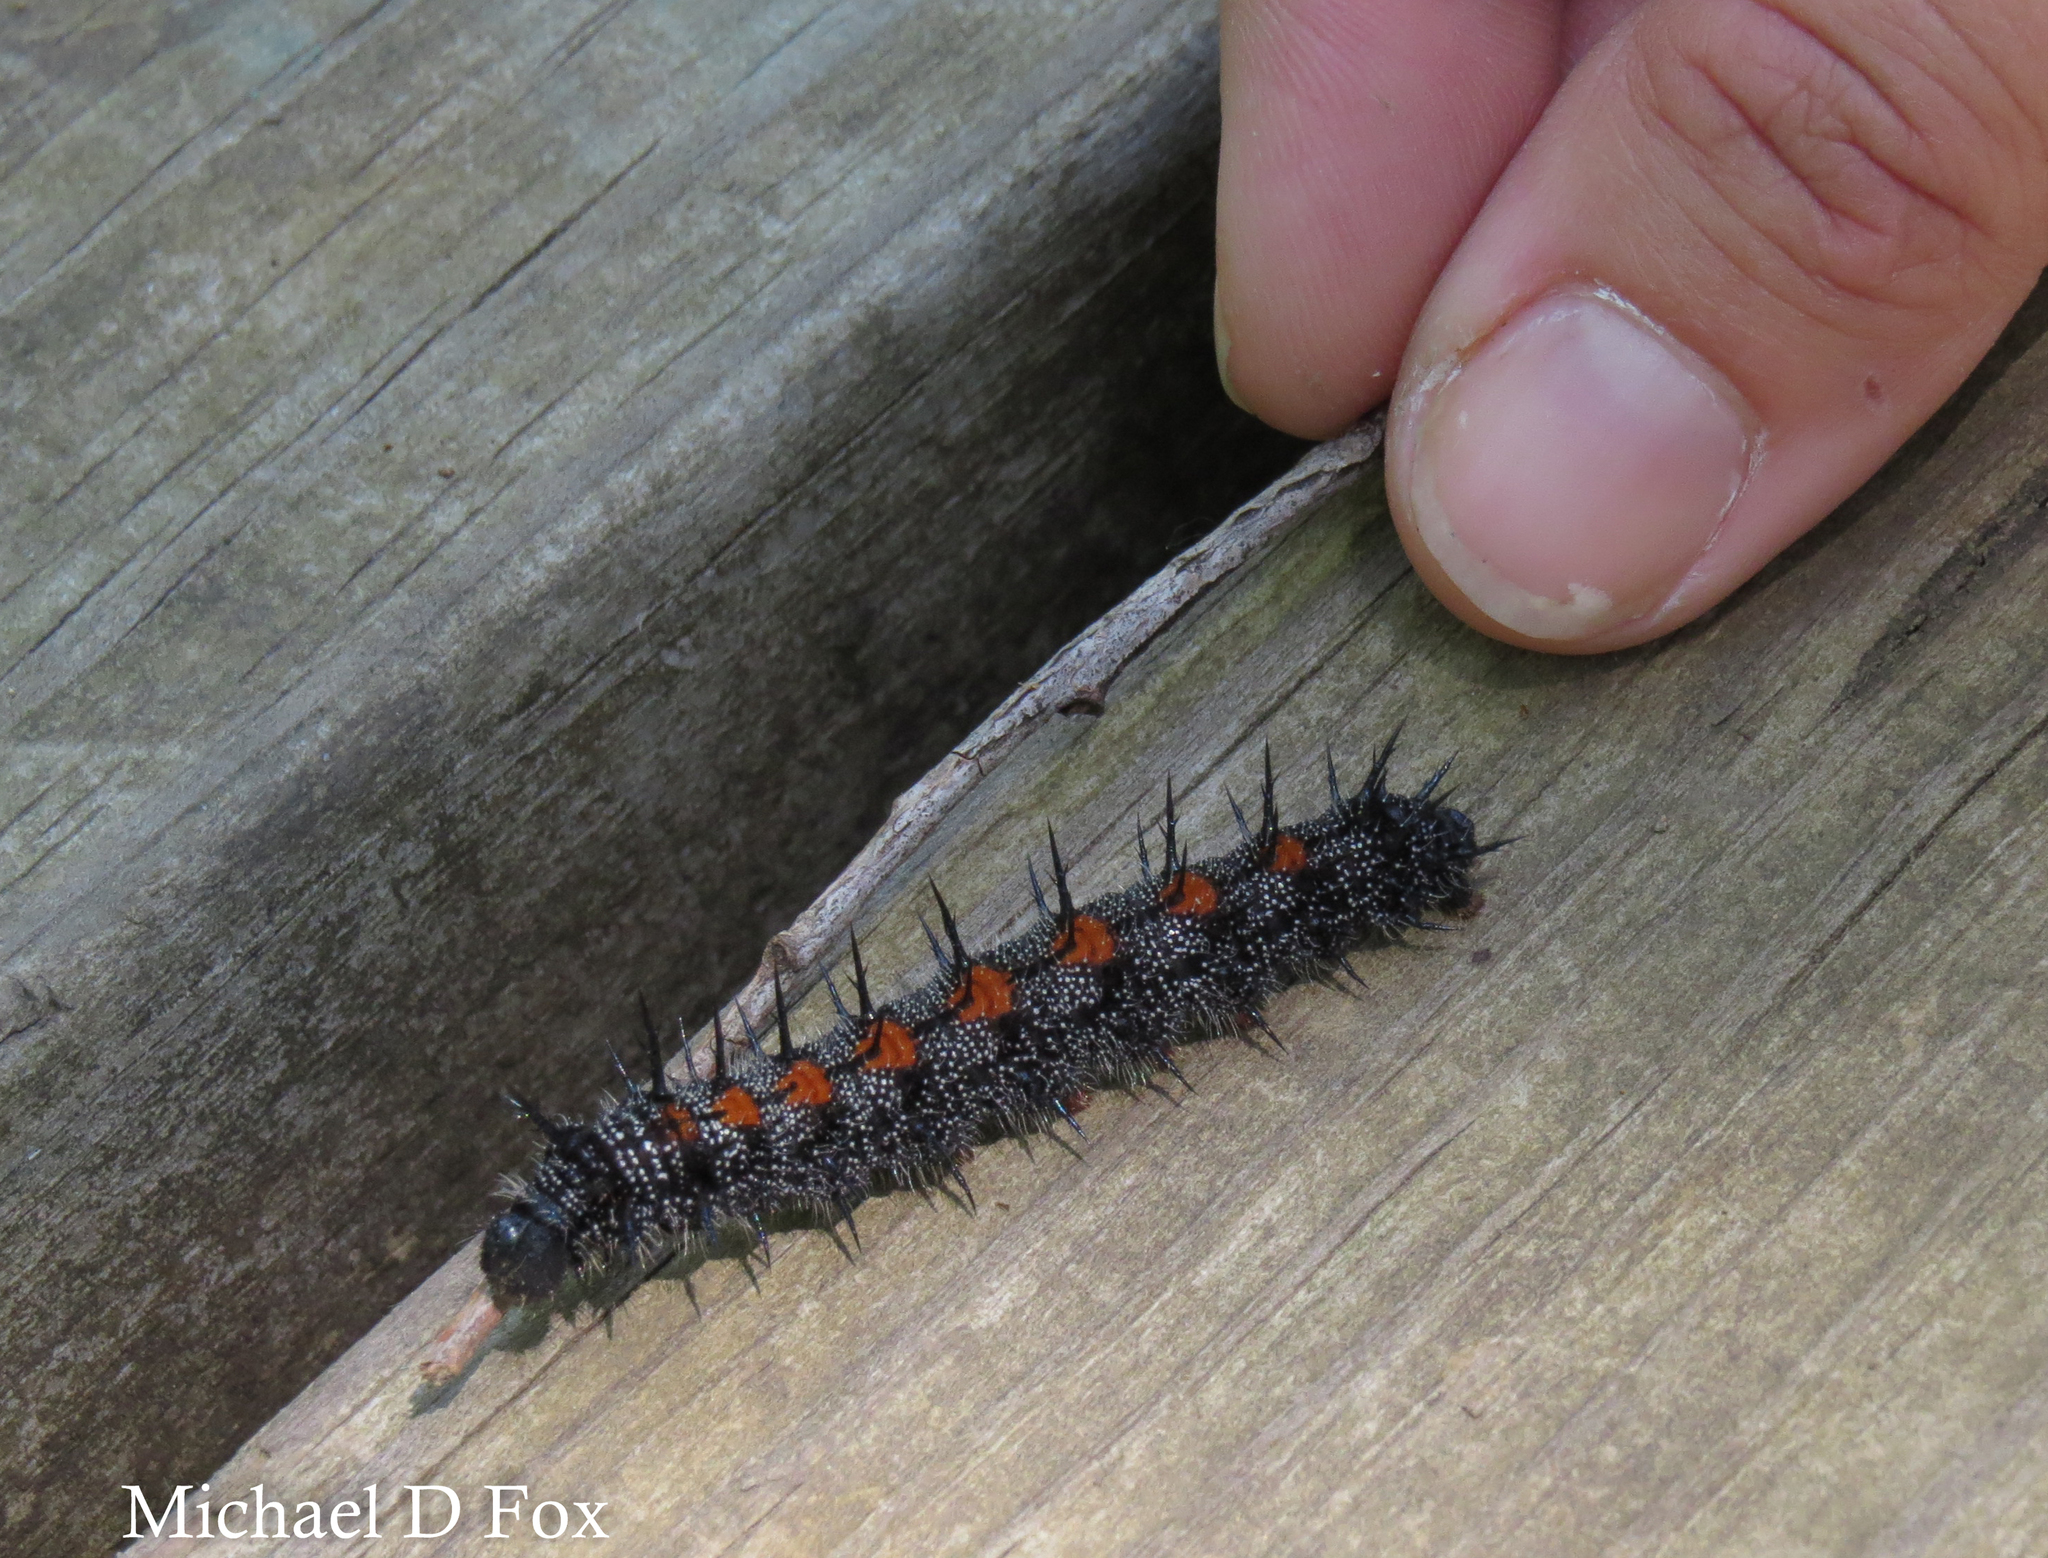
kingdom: Animalia
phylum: Arthropoda
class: Insecta
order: Lepidoptera
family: Nymphalidae
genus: Nymphalis
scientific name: Nymphalis antiopa
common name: Camberwell beauty
